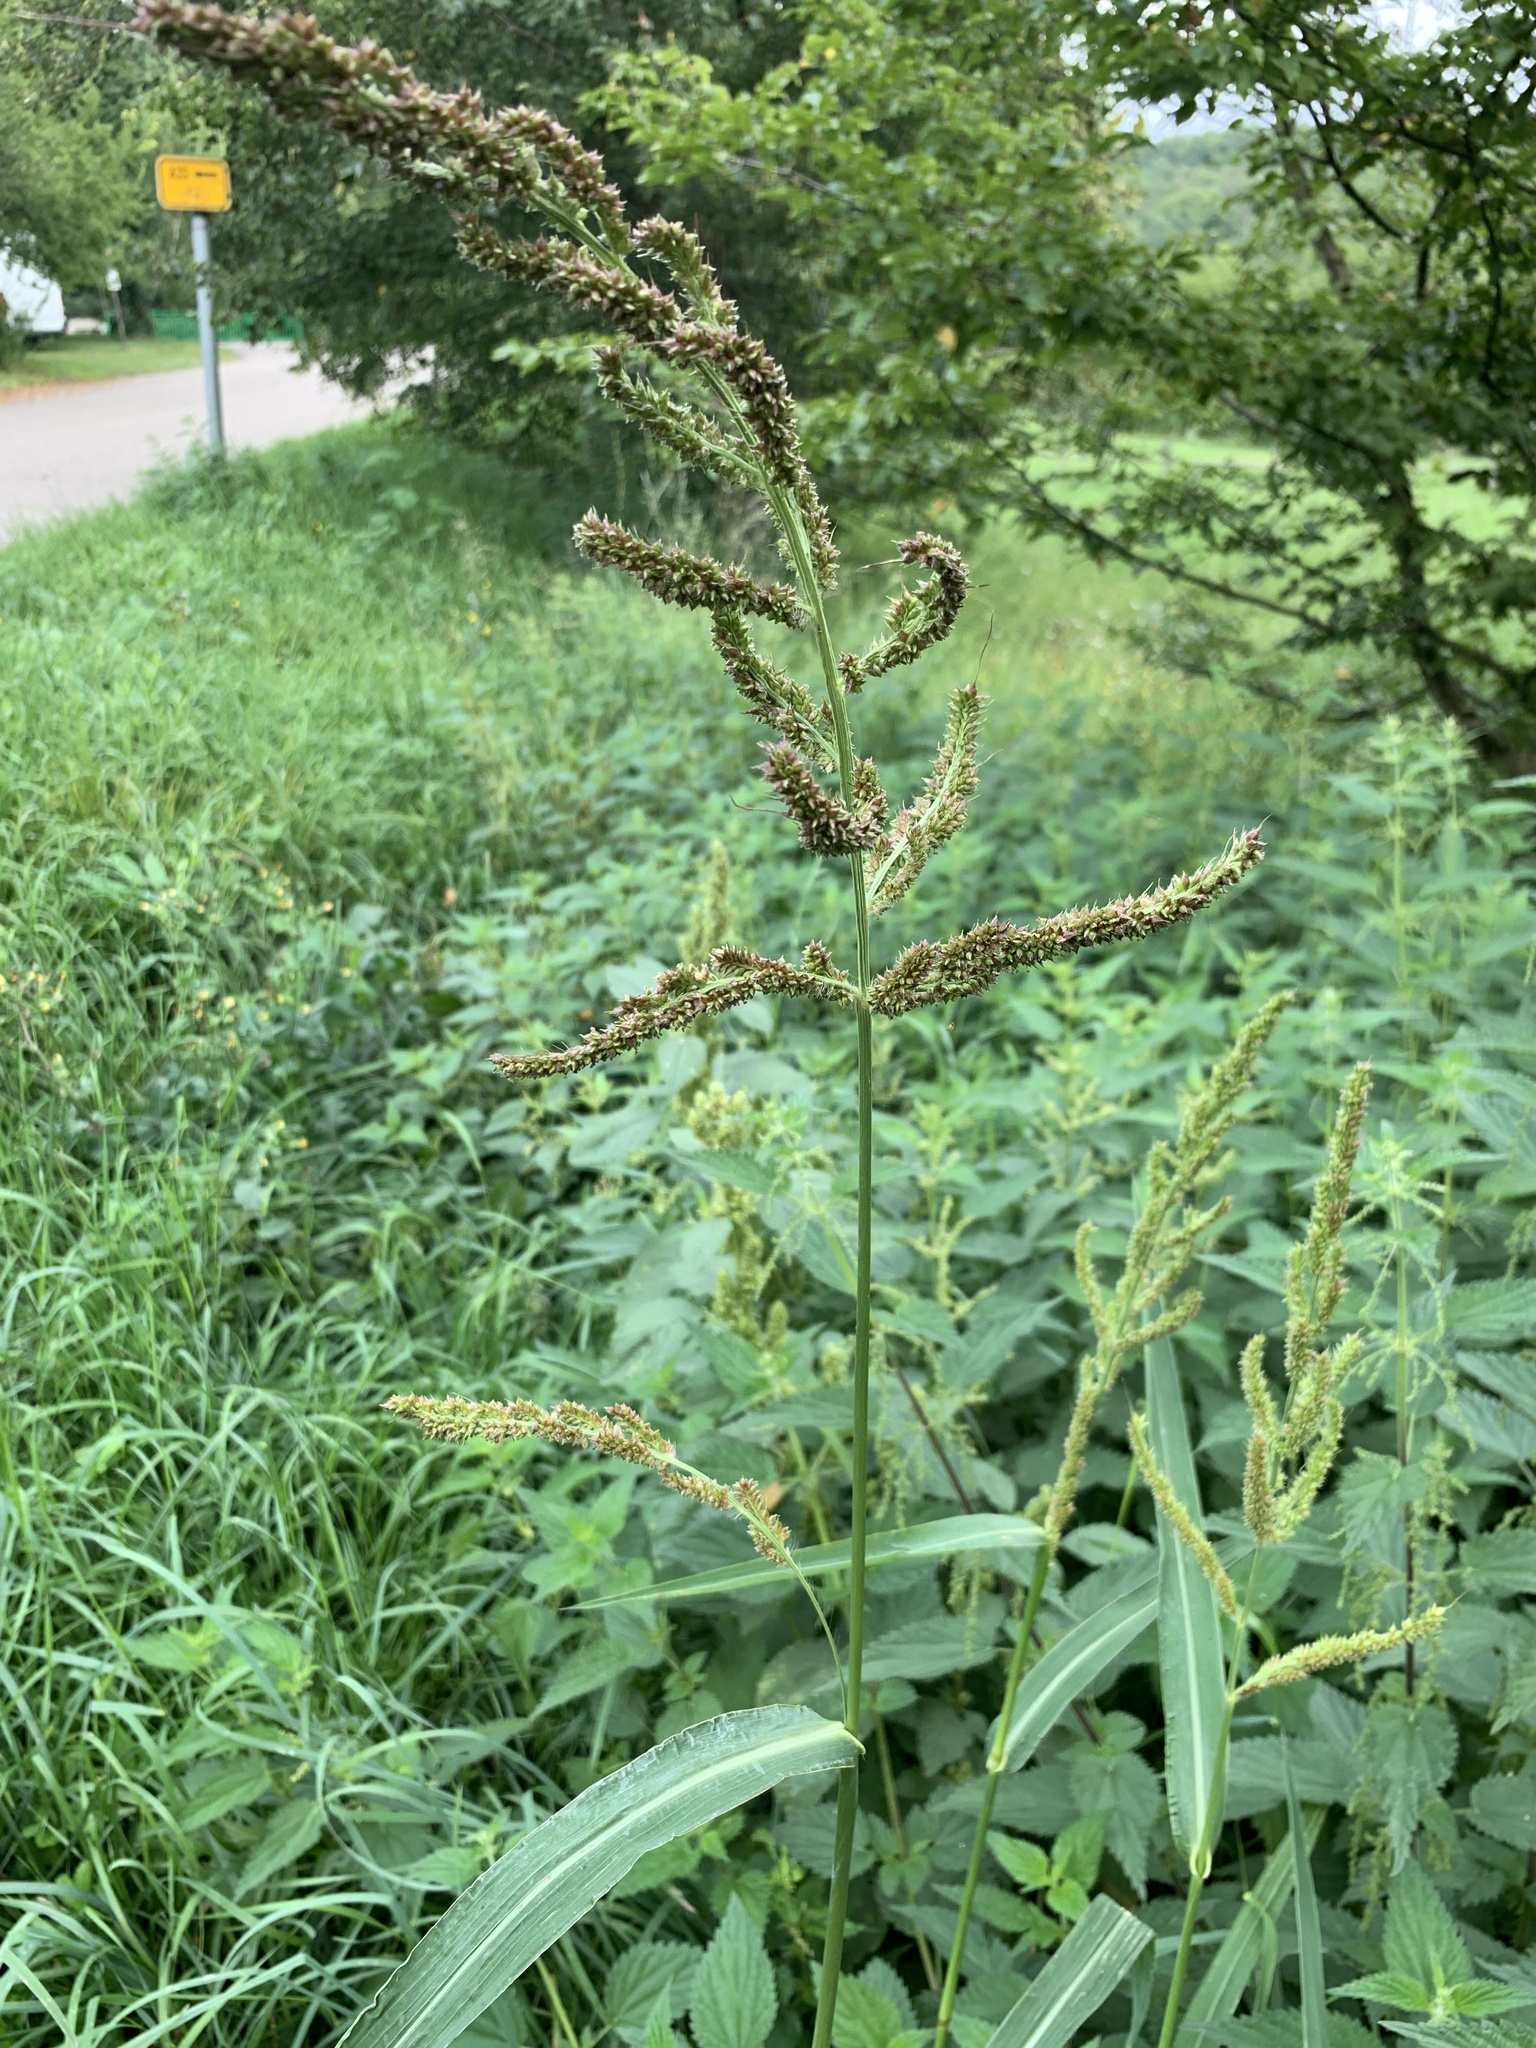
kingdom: Plantae
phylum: Tracheophyta
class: Liliopsida
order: Poales
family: Poaceae
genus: Echinochloa
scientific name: Echinochloa crus-galli
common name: Cockspur
